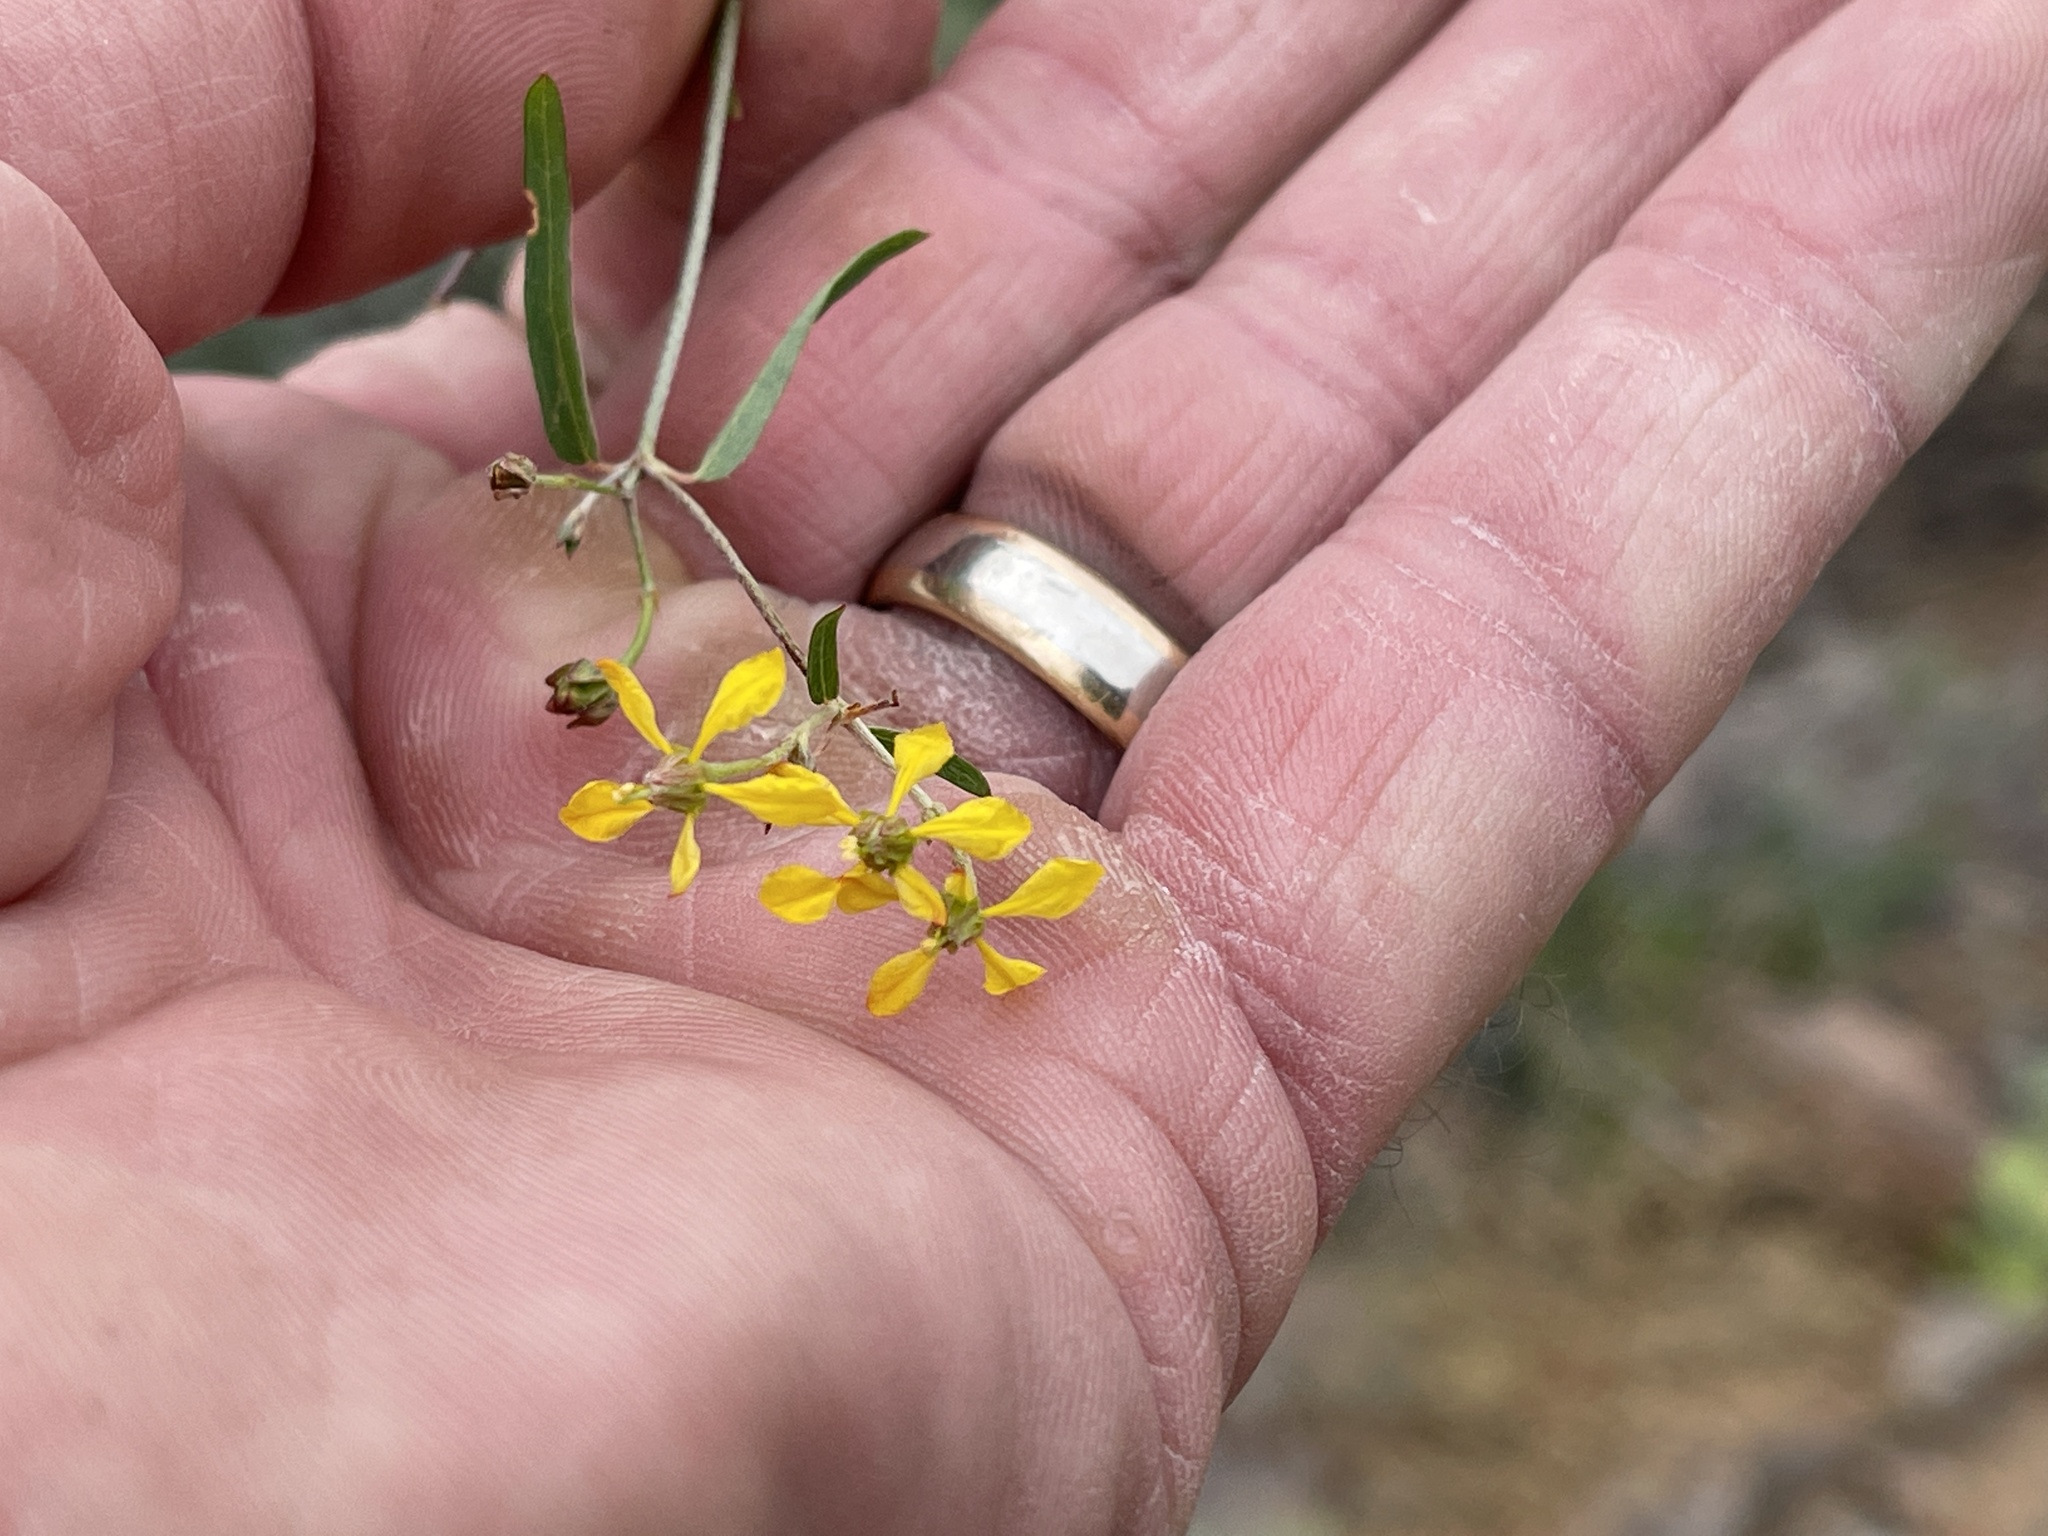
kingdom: Plantae
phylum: Tracheophyta
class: Magnoliopsida
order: Malpighiales
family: Malpighiaceae
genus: Cottsia
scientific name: Cottsia gracilis
